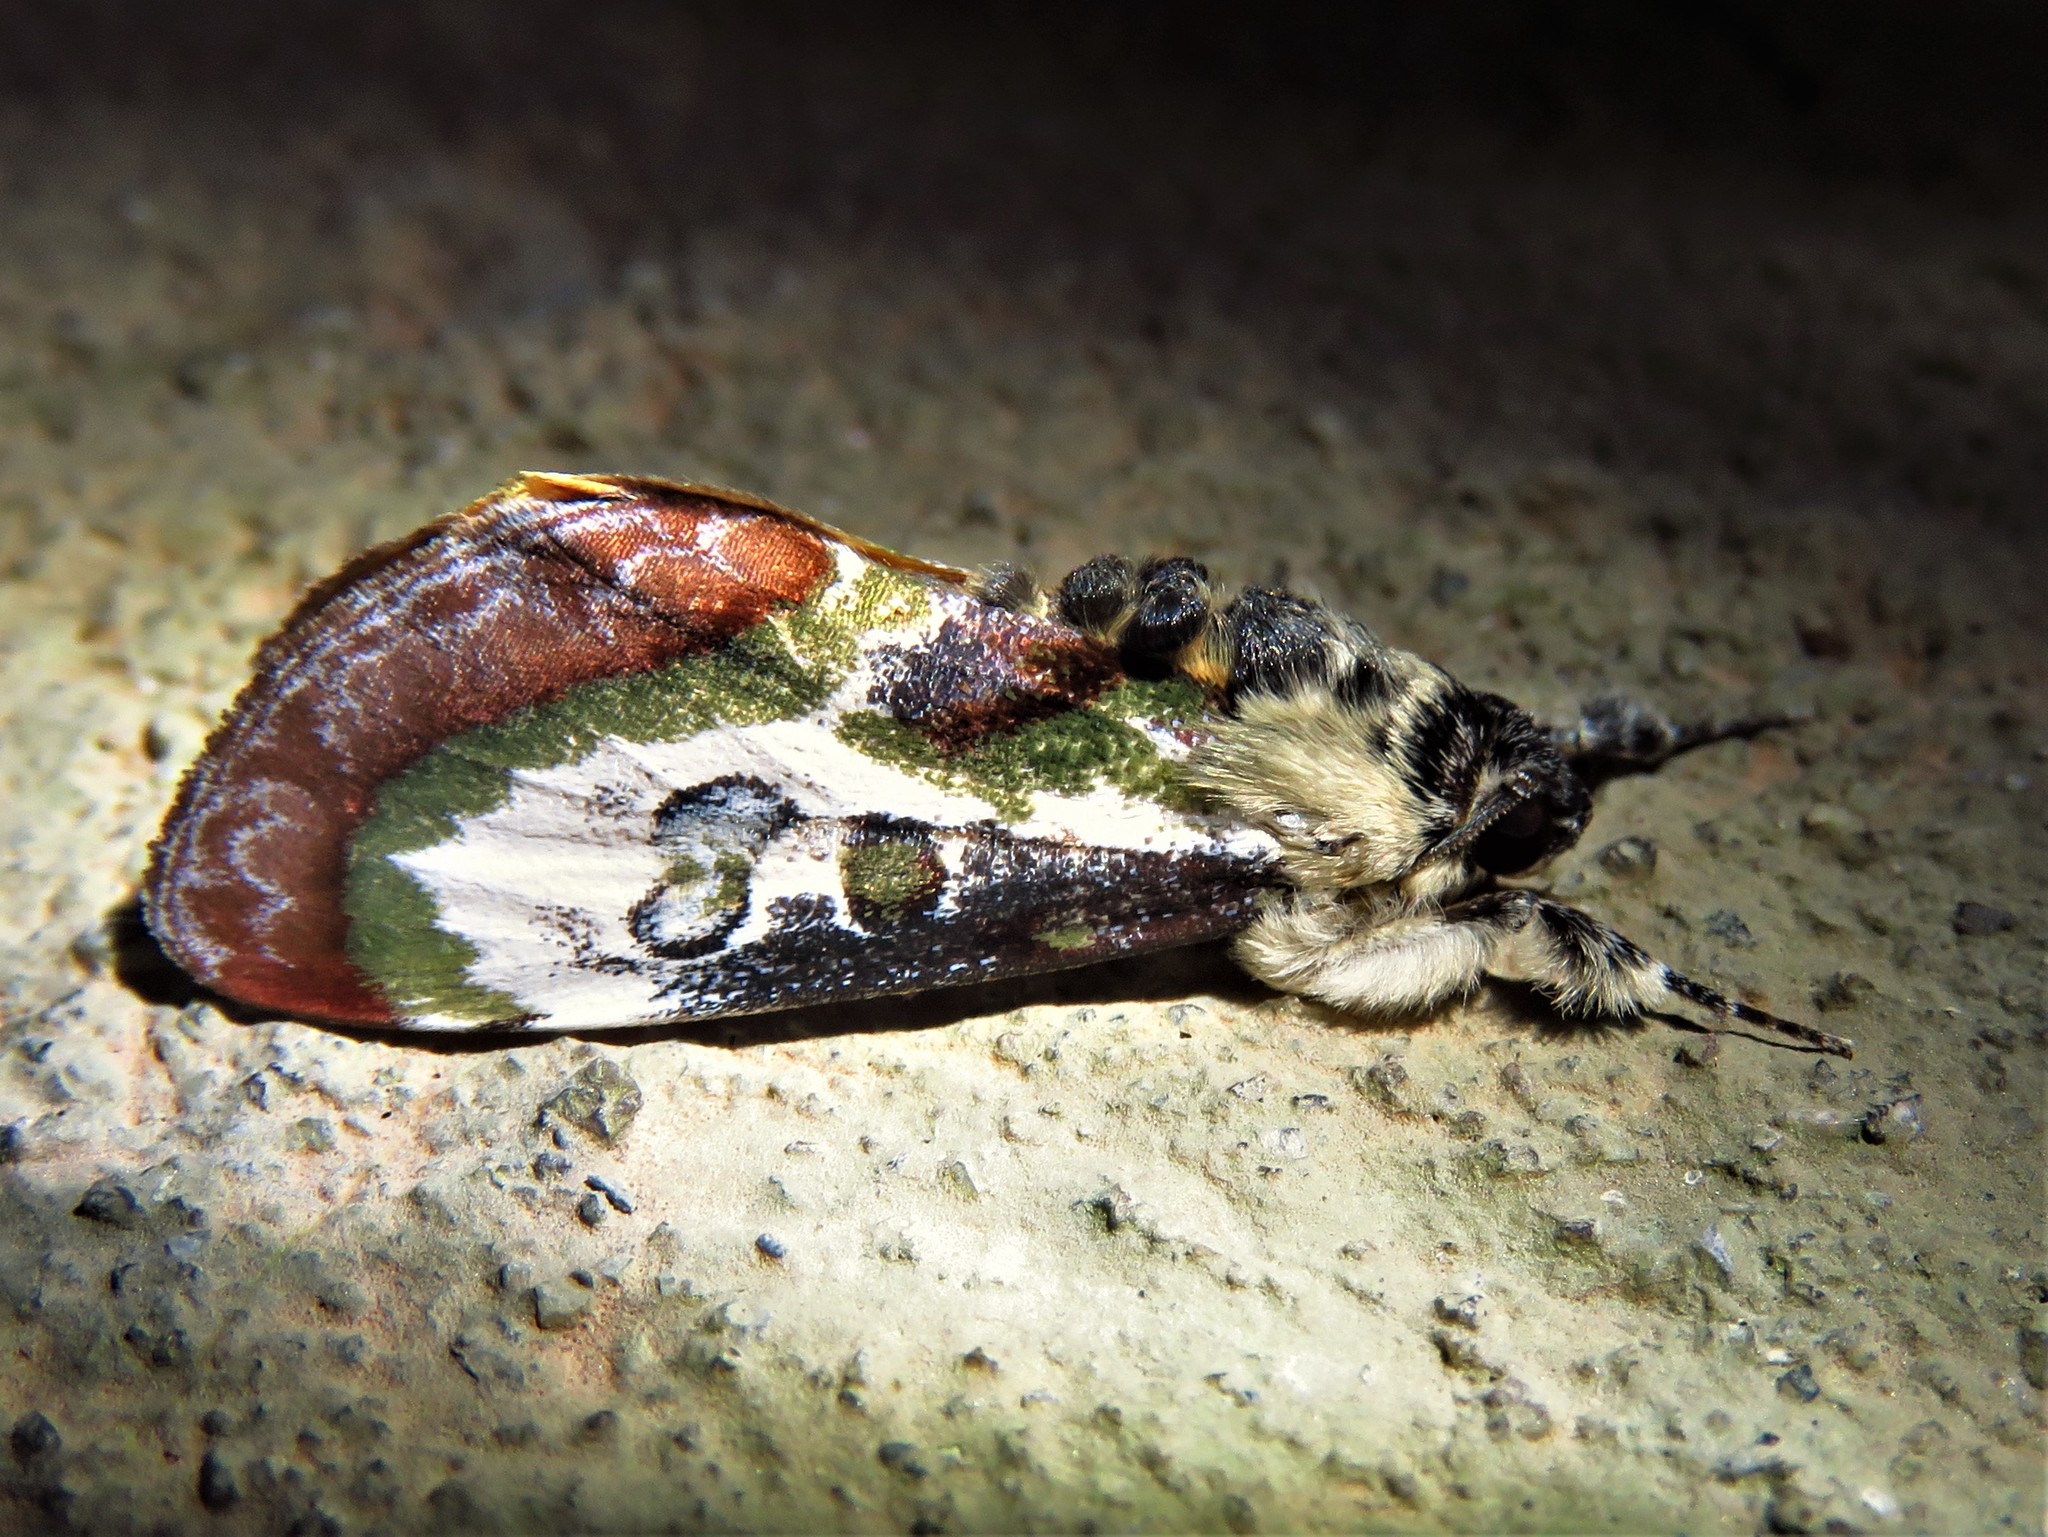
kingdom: Animalia
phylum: Arthropoda
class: Insecta
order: Lepidoptera
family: Noctuidae
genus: Epithisanotia
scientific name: Epithisanotia sanctijohannis
